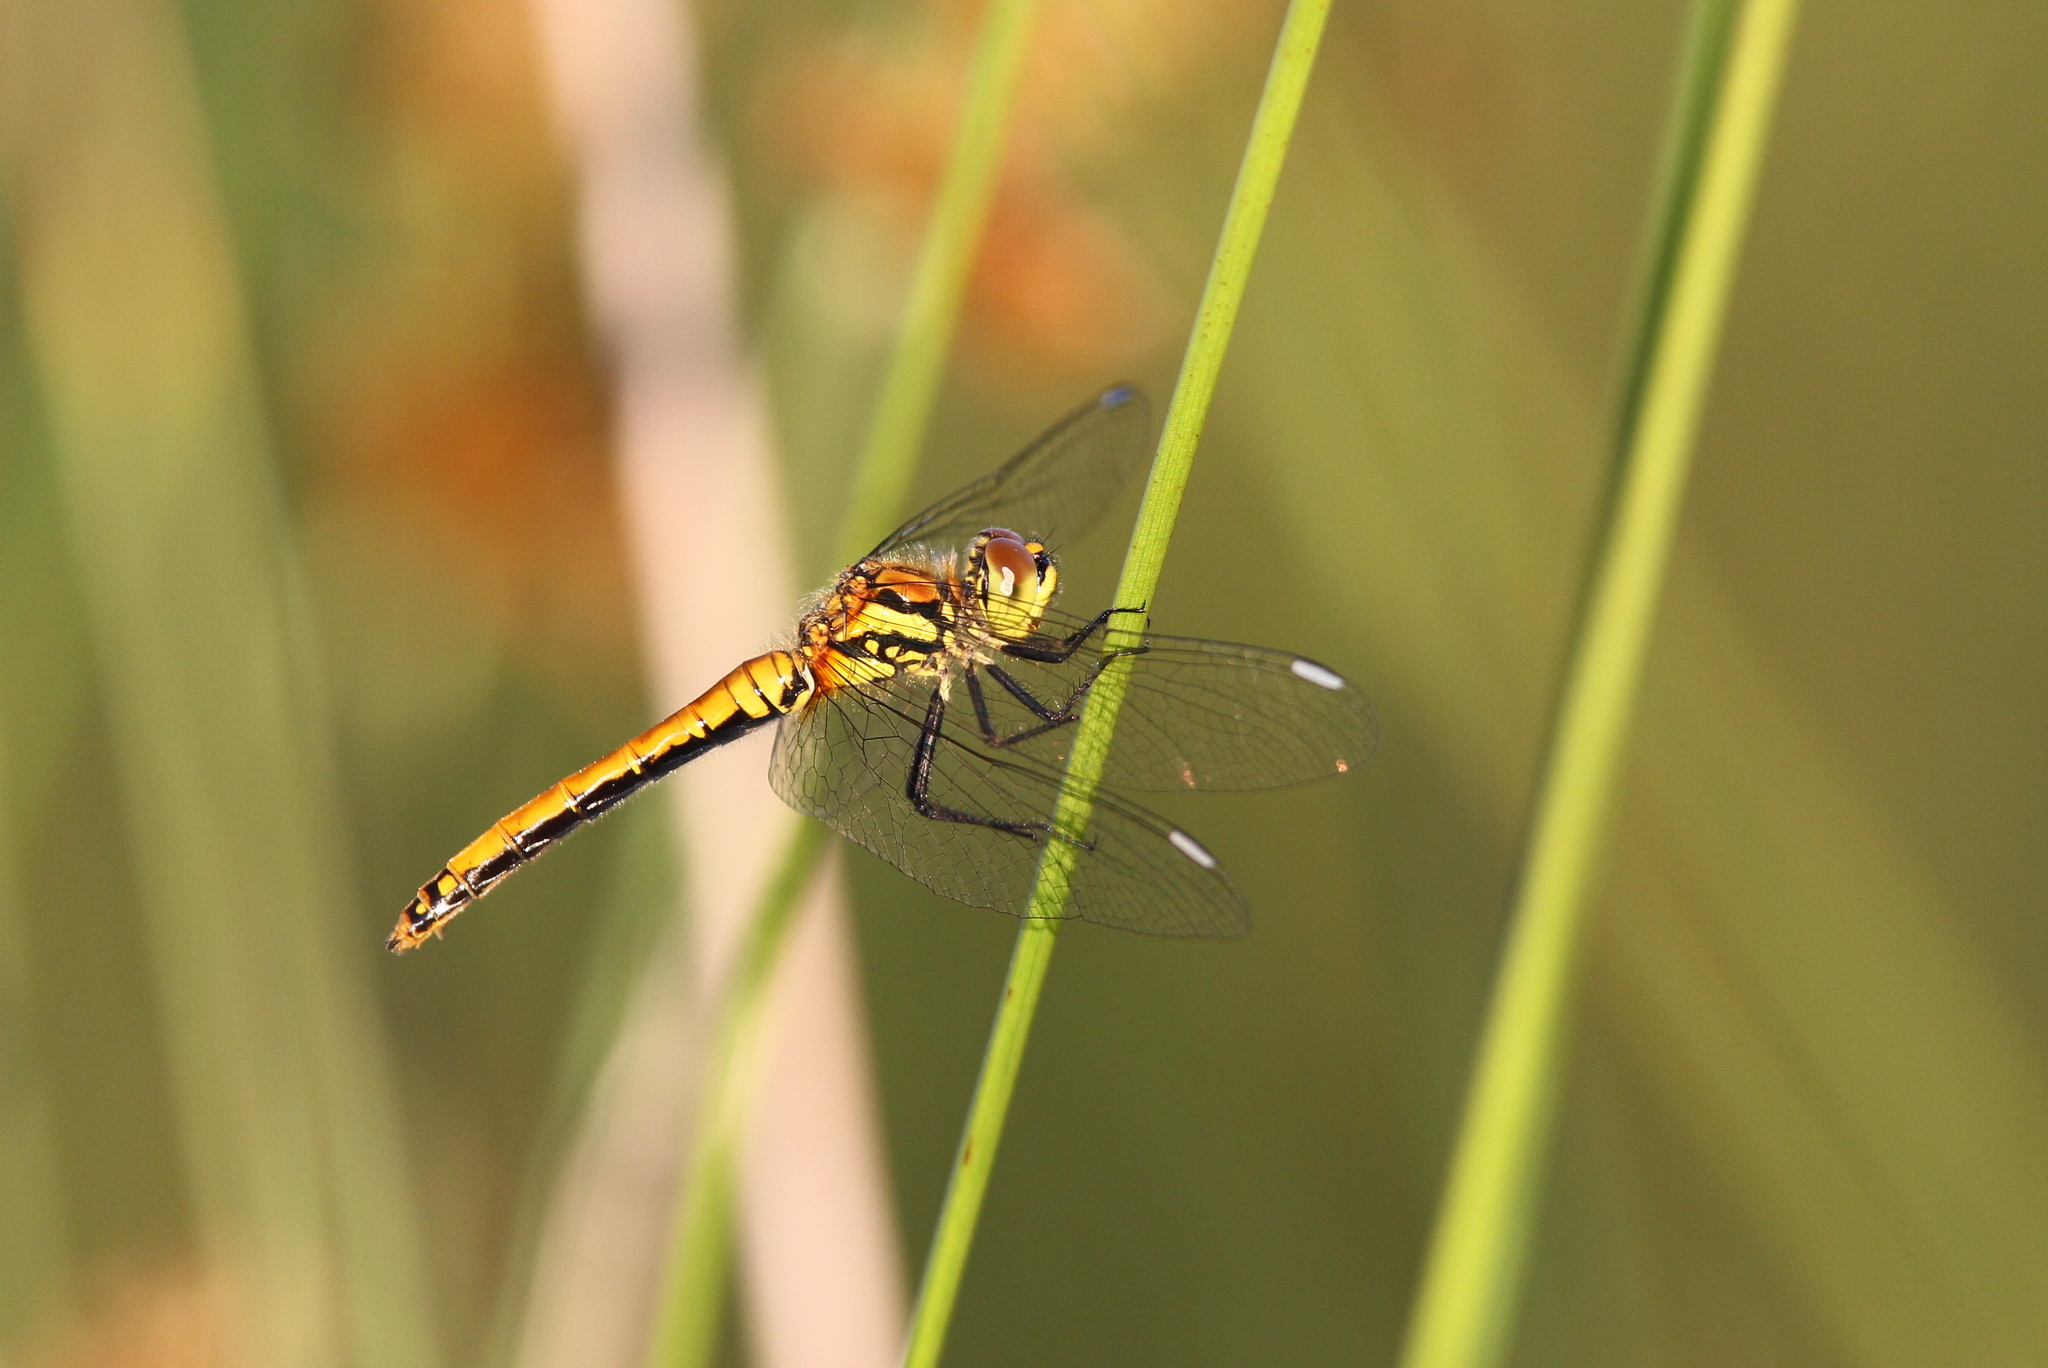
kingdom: Animalia
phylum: Arthropoda
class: Insecta
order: Odonata
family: Libellulidae
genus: Sympetrum
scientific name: Sympetrum danae
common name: Black darter
